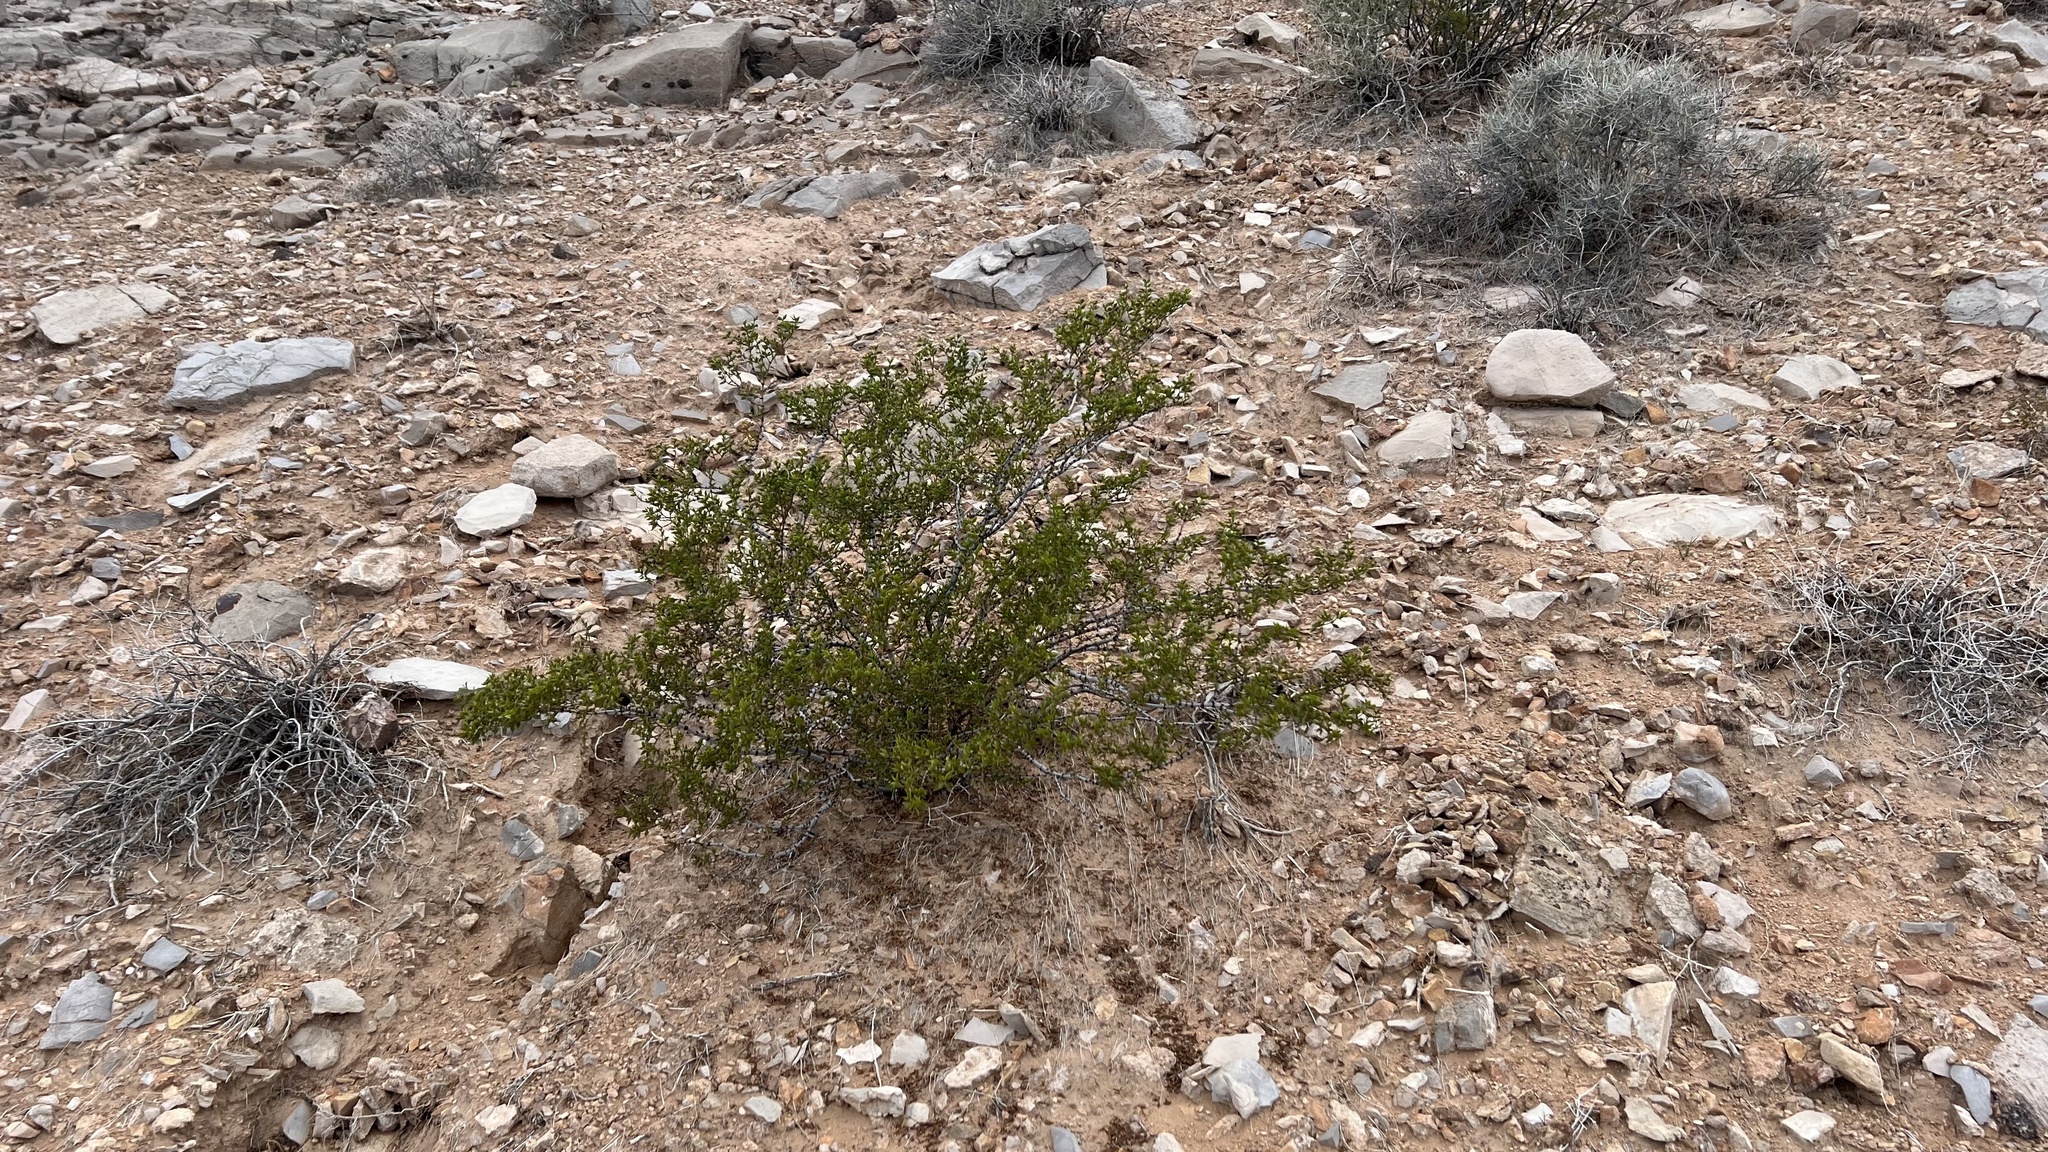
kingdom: Plantae
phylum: Tracheophyta
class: Magnoliopsida
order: Zygophyllales
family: Zygophyllaceae
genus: Larrea
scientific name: Larrea tridentata
